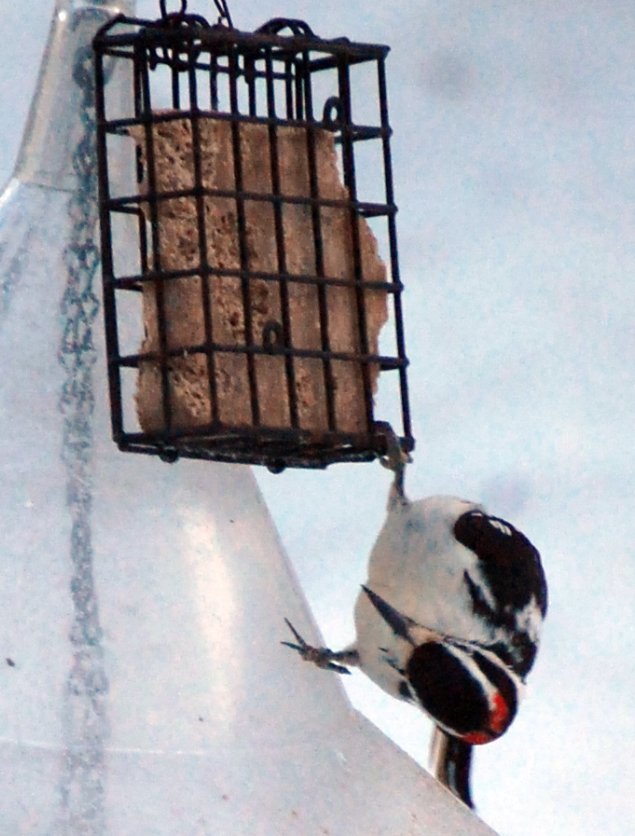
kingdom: Animalia
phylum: Chordata
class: Aves
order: Piciformes
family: Picidae
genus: Leuconotopicus
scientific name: Leuconotopicus villosus
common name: Hairy woodpecker
